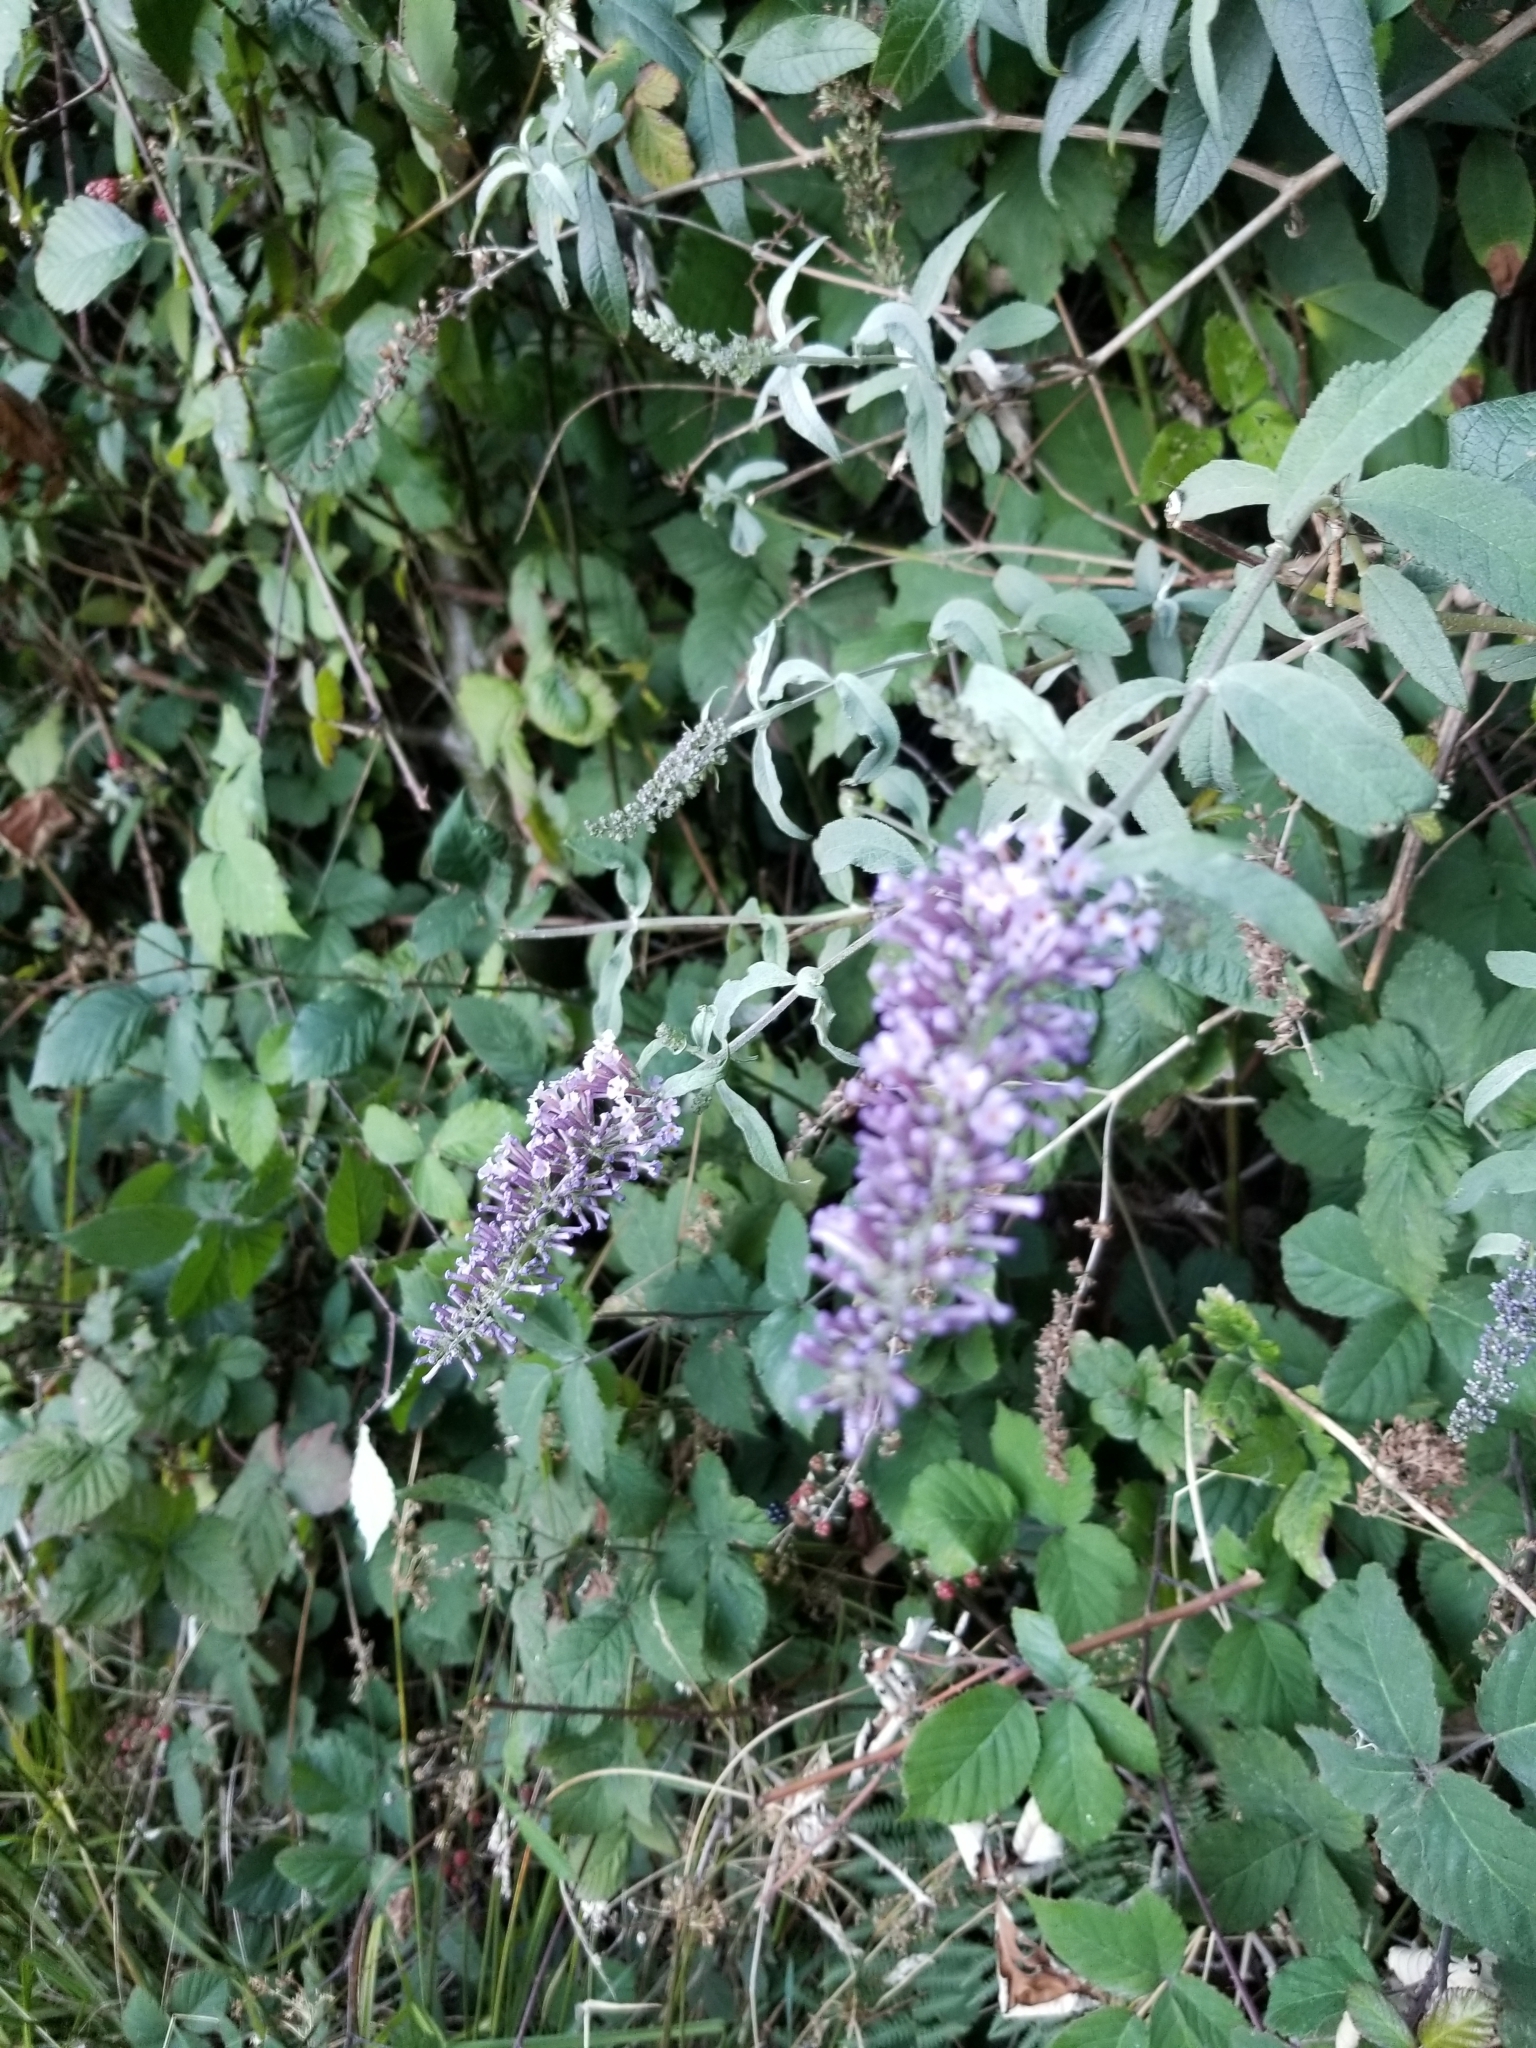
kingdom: Plantae
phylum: Tracheophyta
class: Magnoliopsida
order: Lamiales
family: Scrophulariaceae
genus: Buddleja
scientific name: Buddleja davidii
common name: Butterfly-bush
